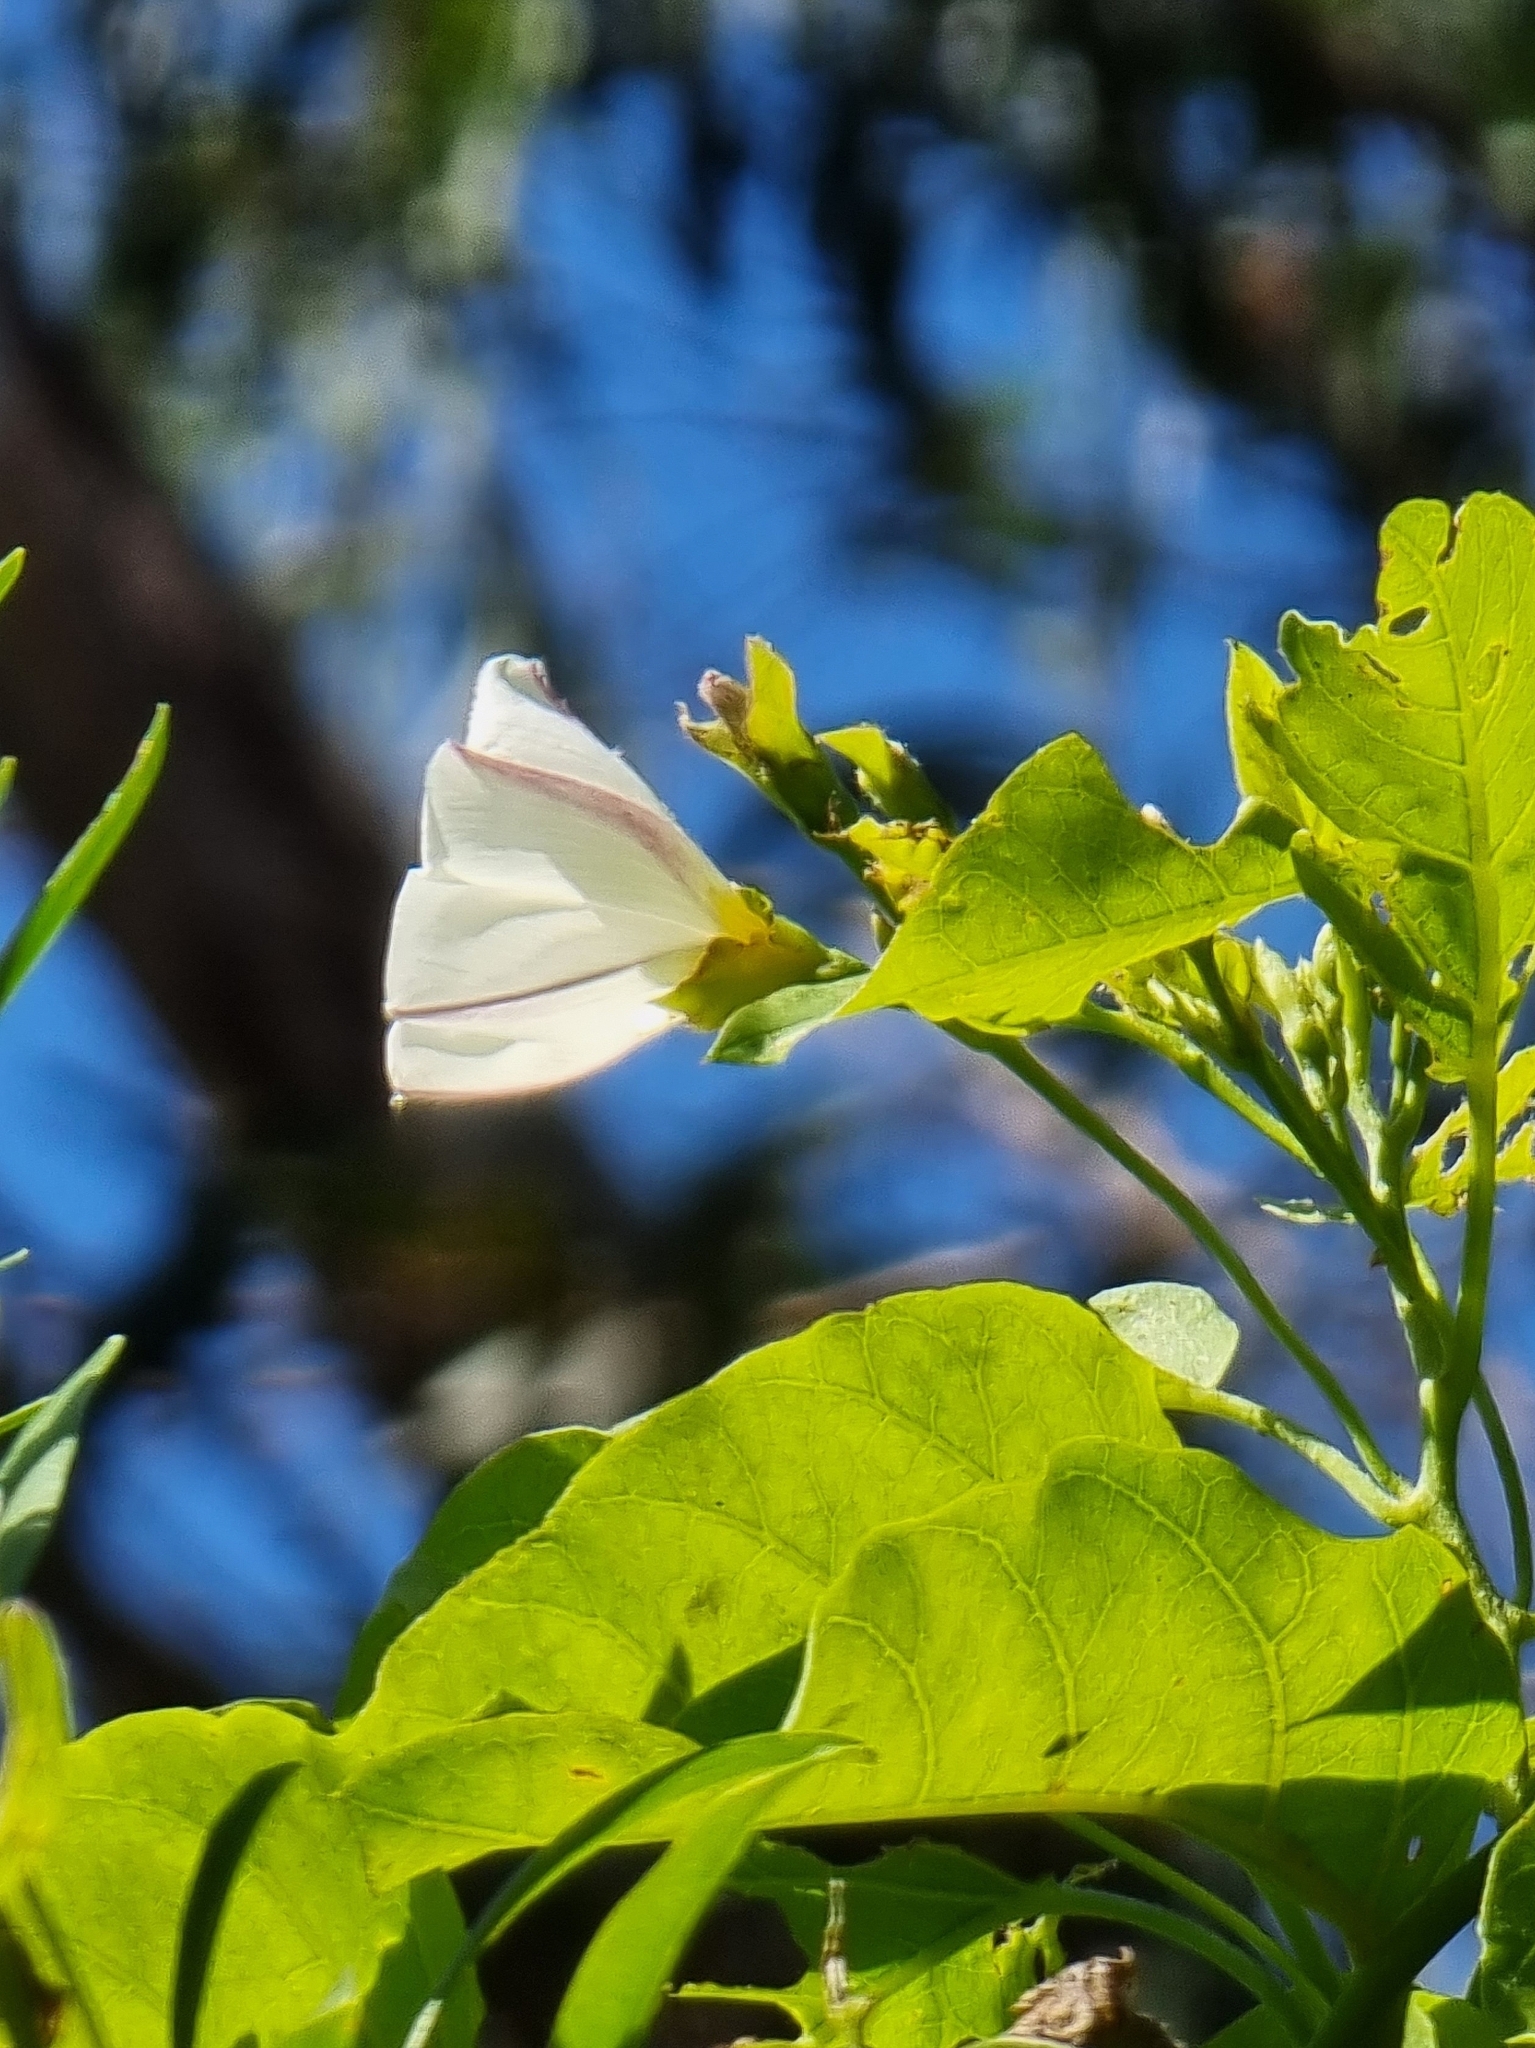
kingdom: Plantae
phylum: Tracheophyta
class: Magnoliopsida
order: Solanales
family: Convolvulaceae
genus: Convolvulus
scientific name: Convolvulus massonii
